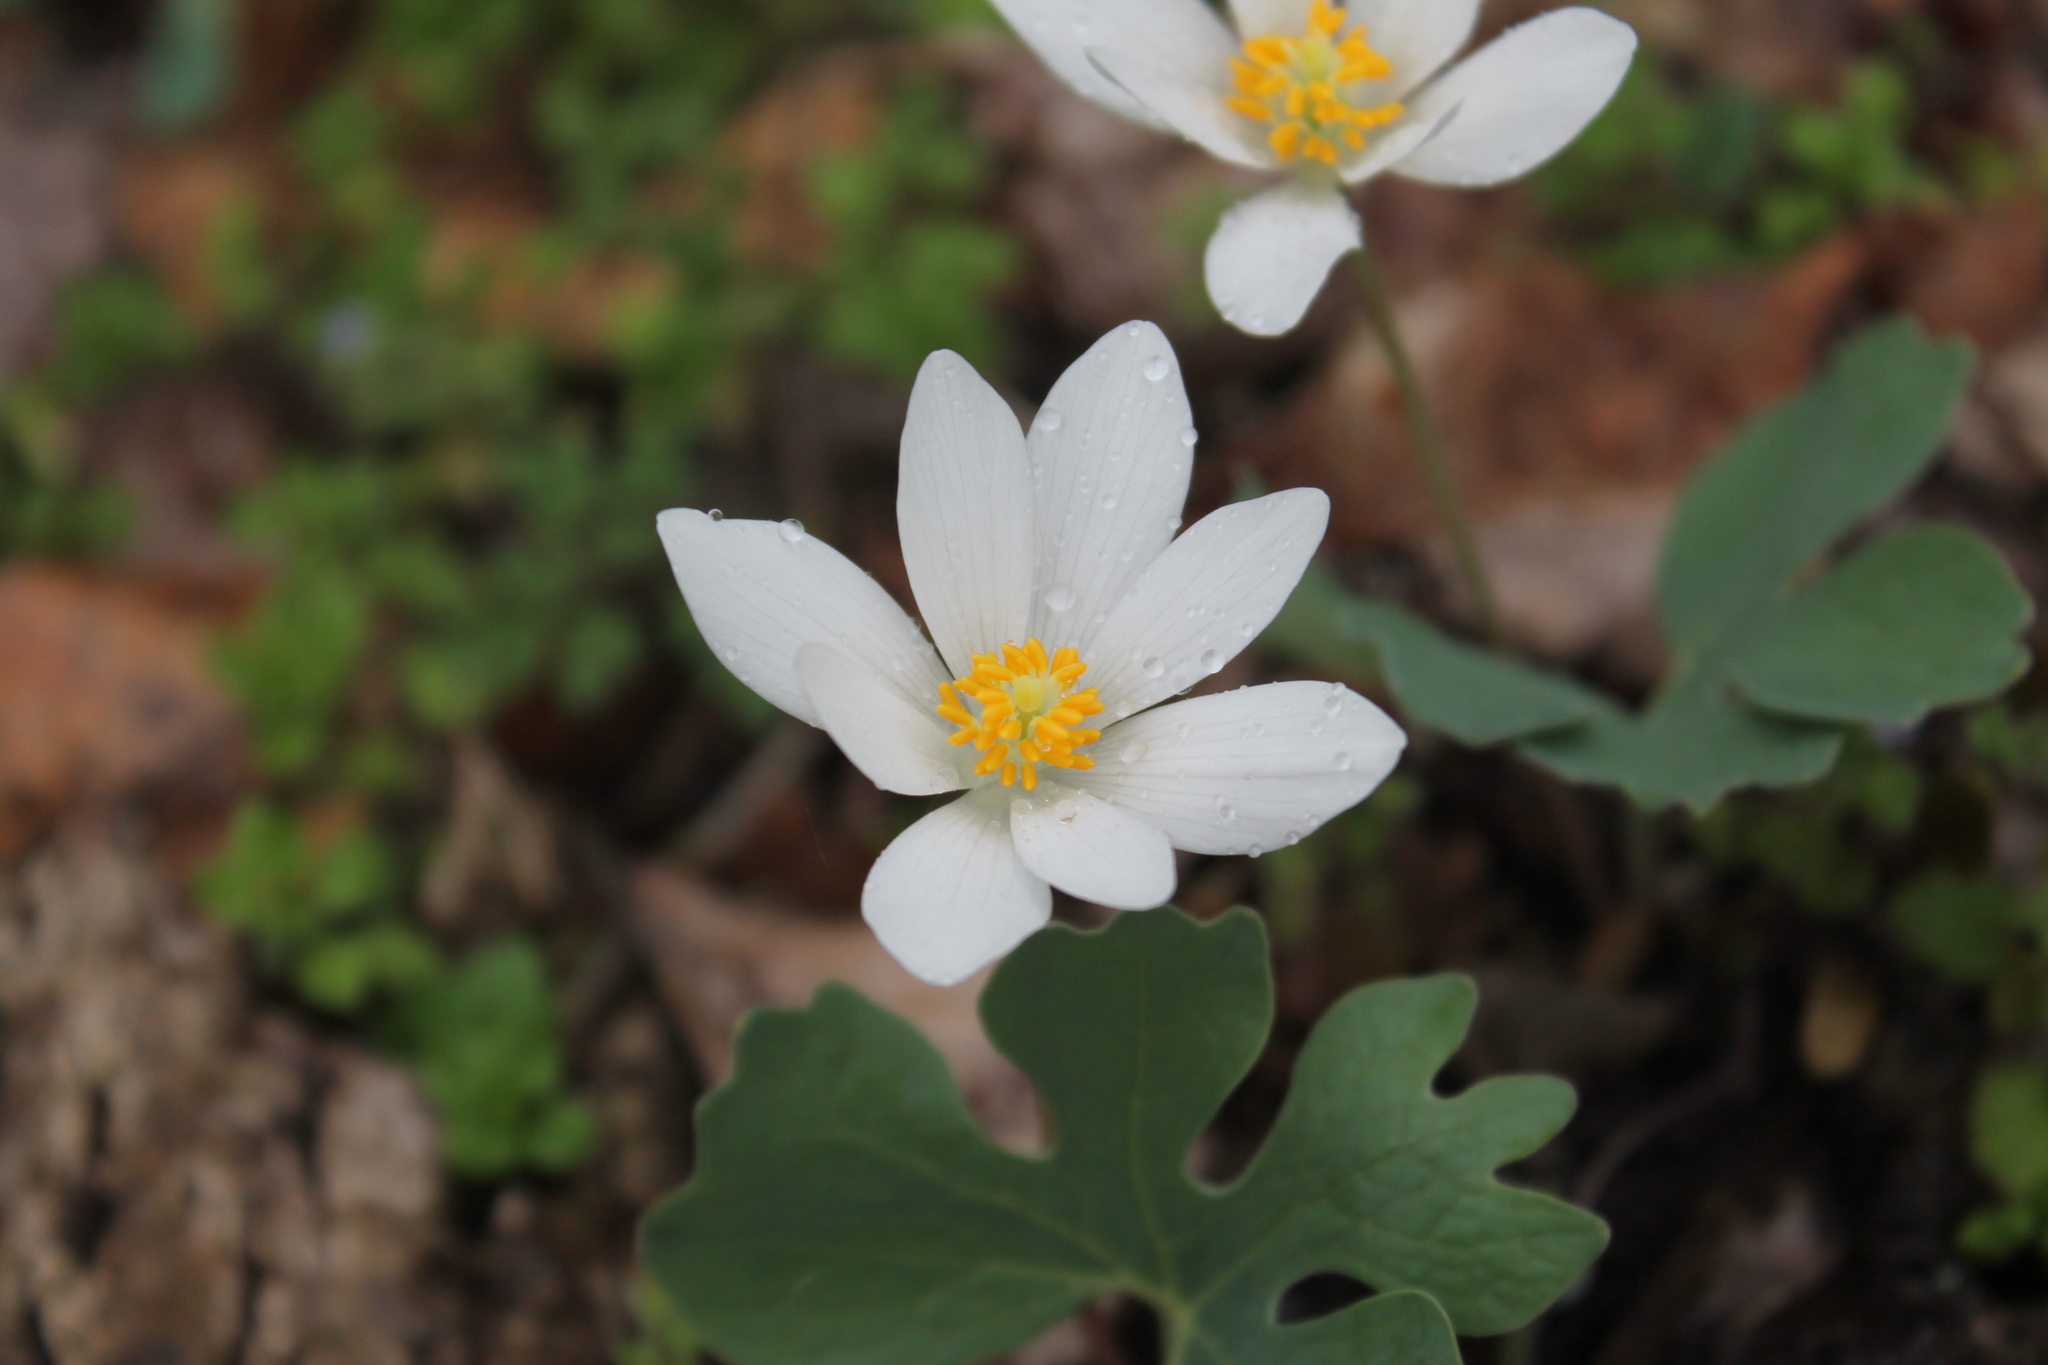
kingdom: Plantae
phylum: Tracheophyta
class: Magnoliopsida
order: Ranunculales
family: Papaveraceae
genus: Sanguinaria
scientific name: Sanguinaria canadensis
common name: Bloodroot
